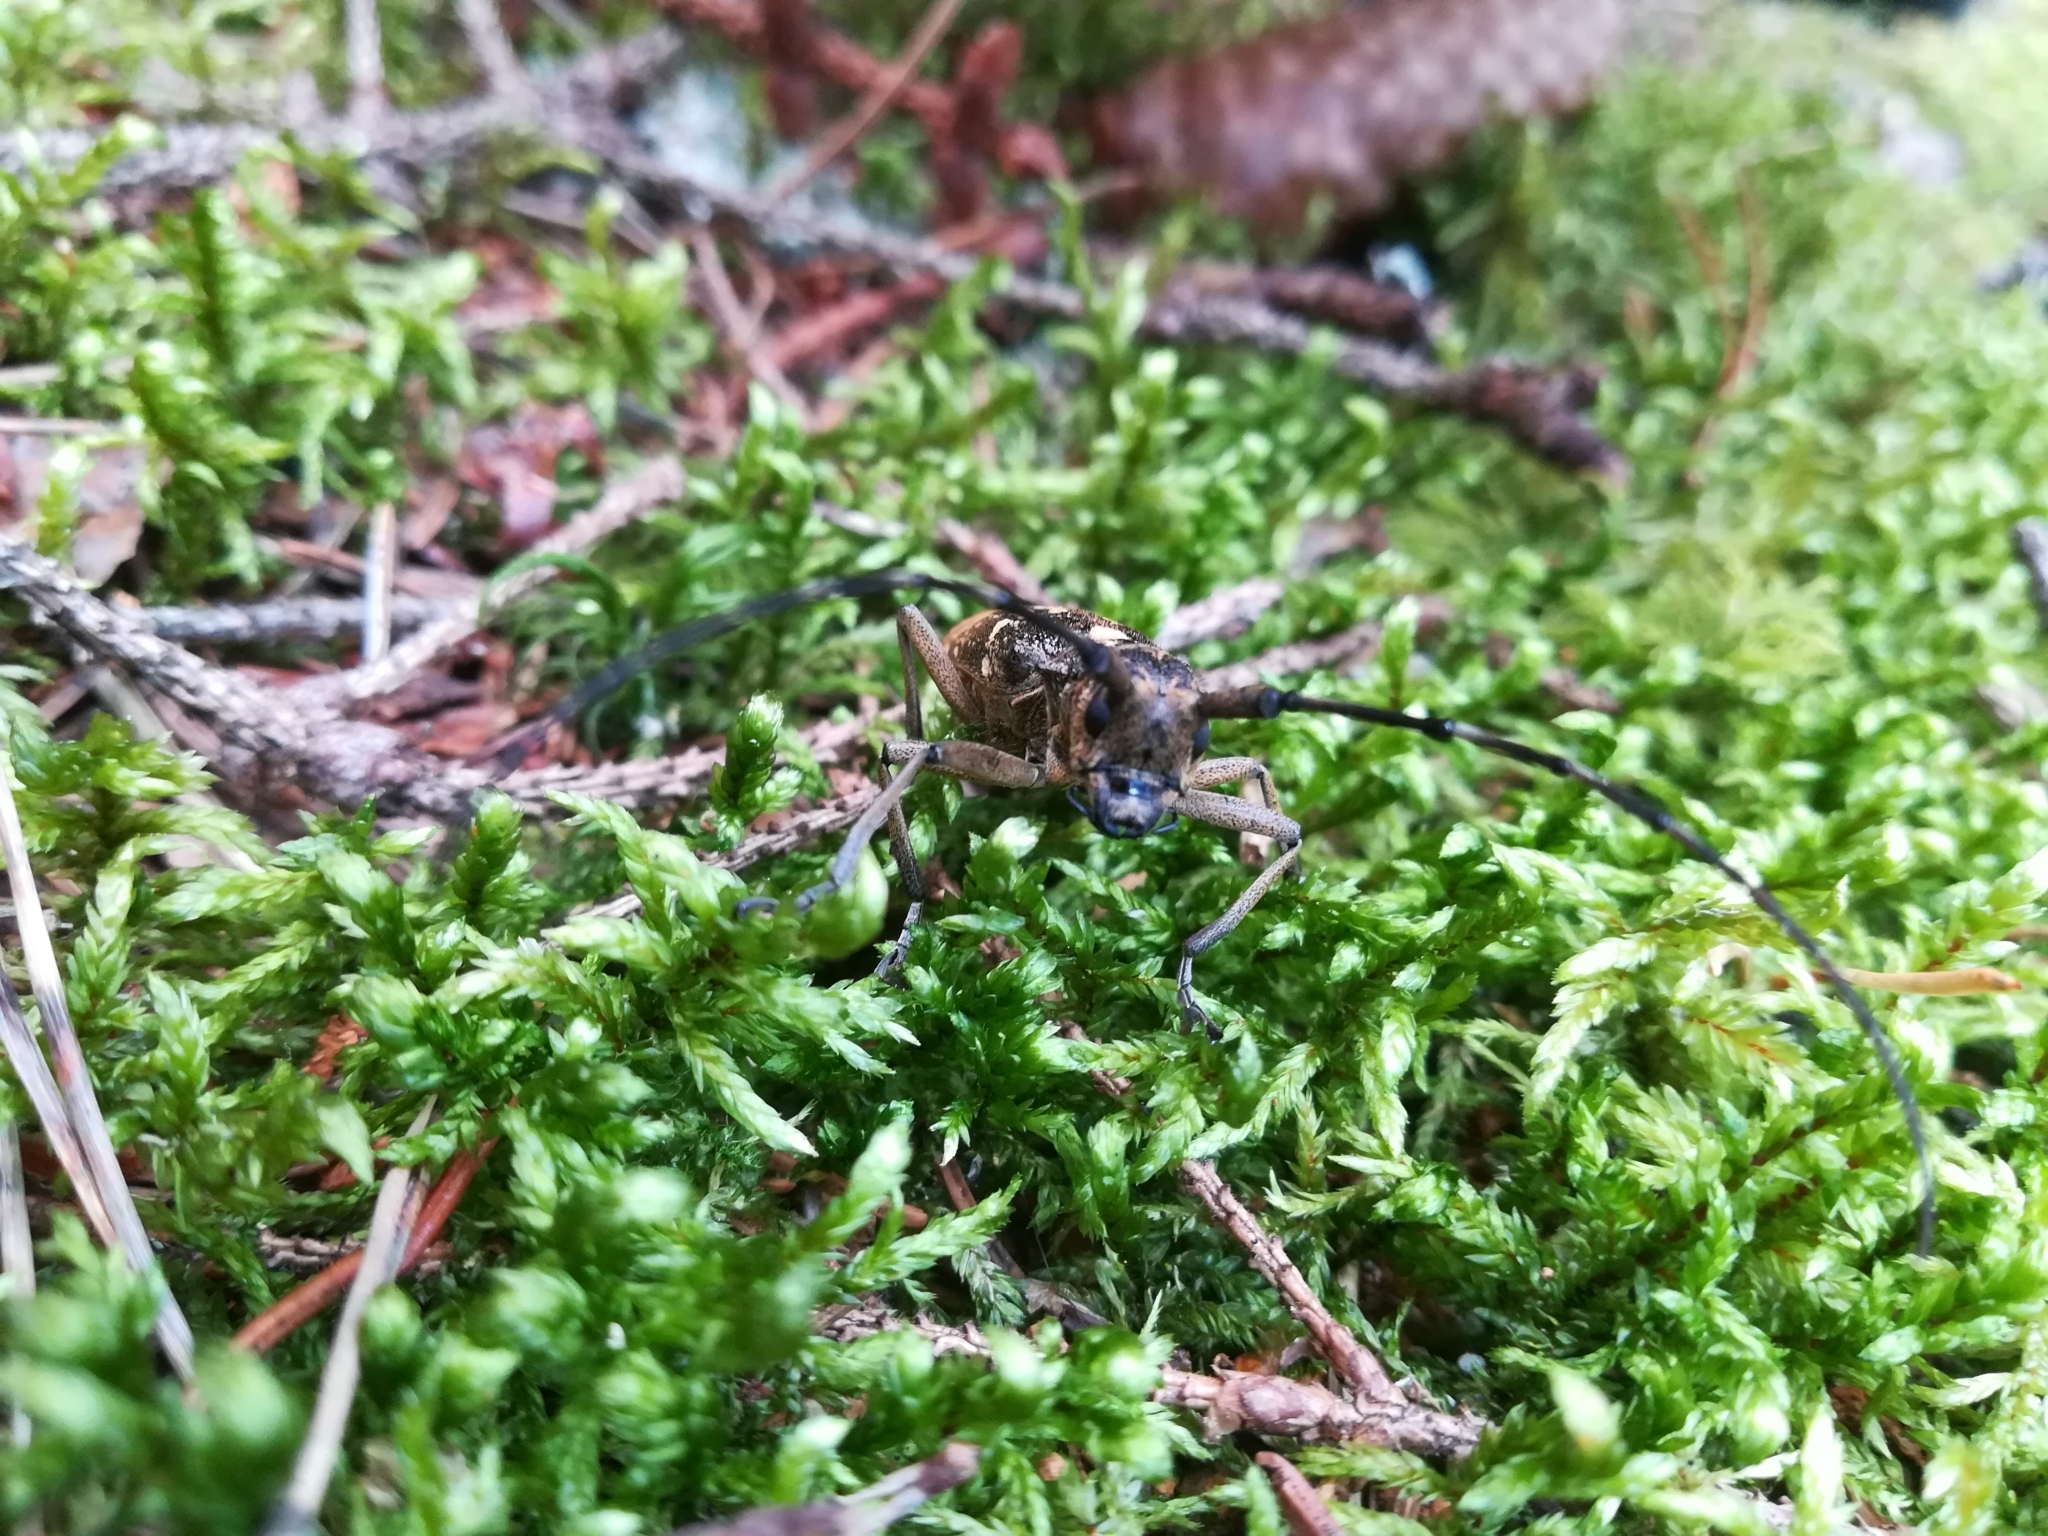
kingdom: Animalia
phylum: Arthropoda
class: Insecta
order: Coleoptera
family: Cerambycidae
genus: Monochamus
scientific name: Monochamus sartor
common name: Pine sawyer
